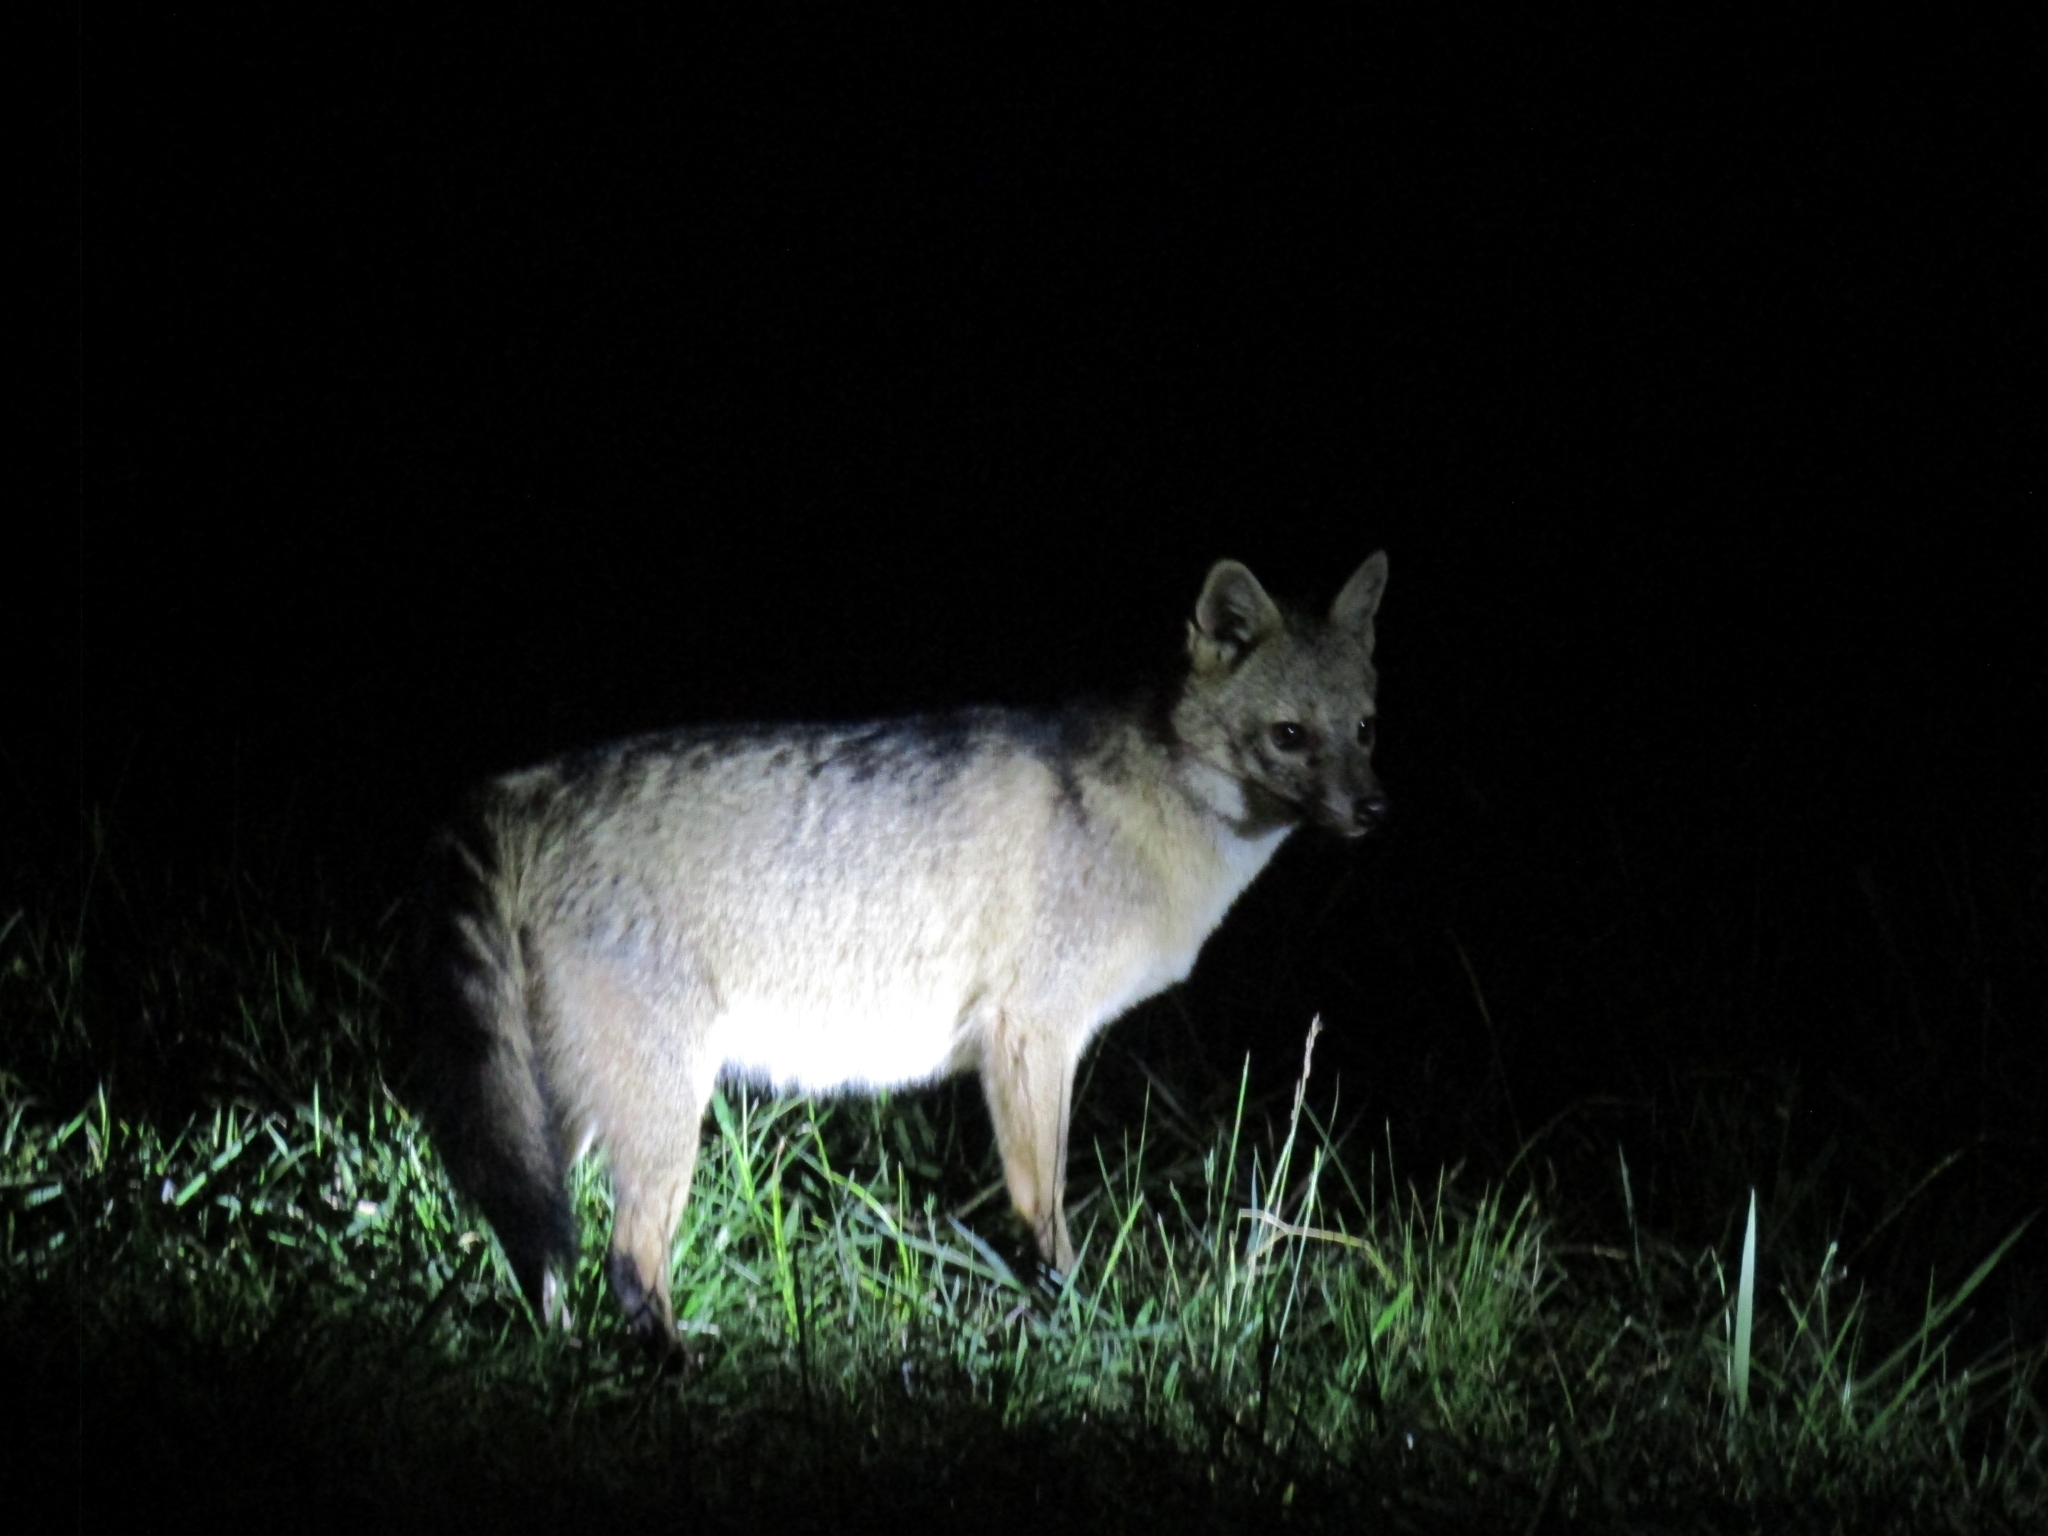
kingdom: Animalia
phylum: Chordata
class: Mammalia
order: Carnivora
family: Canidae
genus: Cerdocyon
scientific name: Cerdocyon thous
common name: Crab-eating fox
